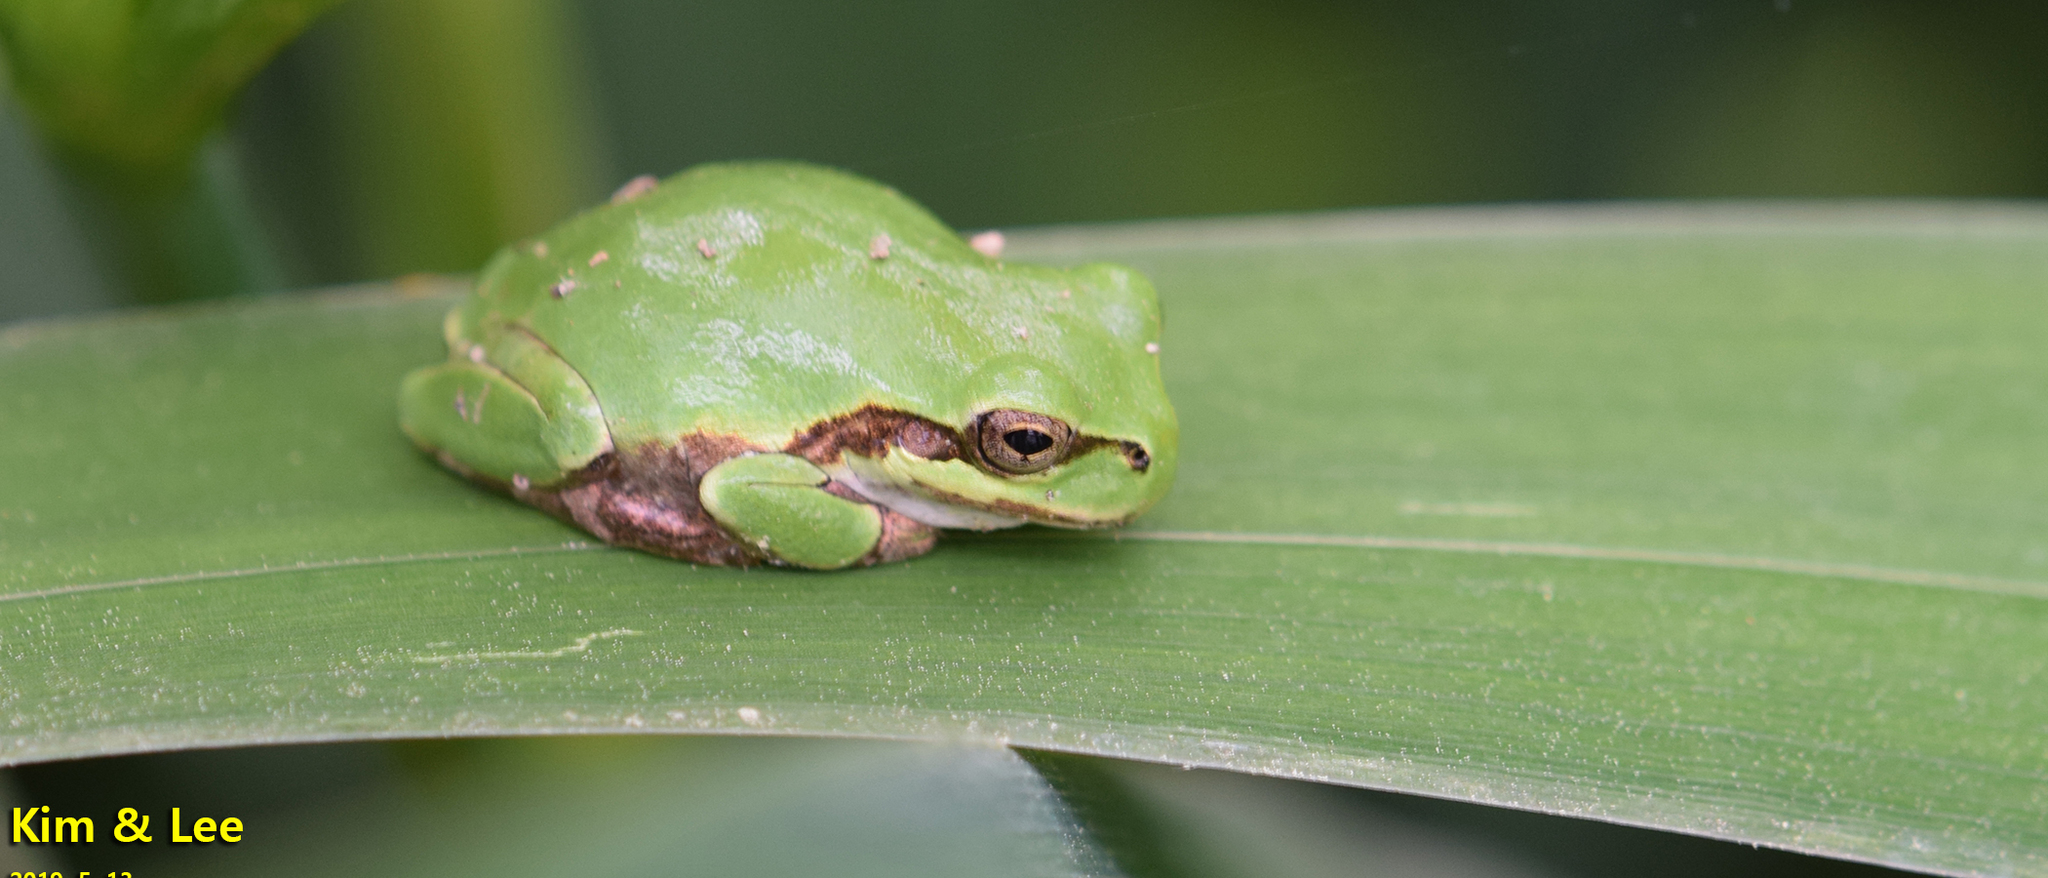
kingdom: Animalia
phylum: Chordata
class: Amphibia
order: Anura
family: Hylidae
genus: Dryophytes
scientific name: Dryophytes japonicus
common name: Japanese treefrog
